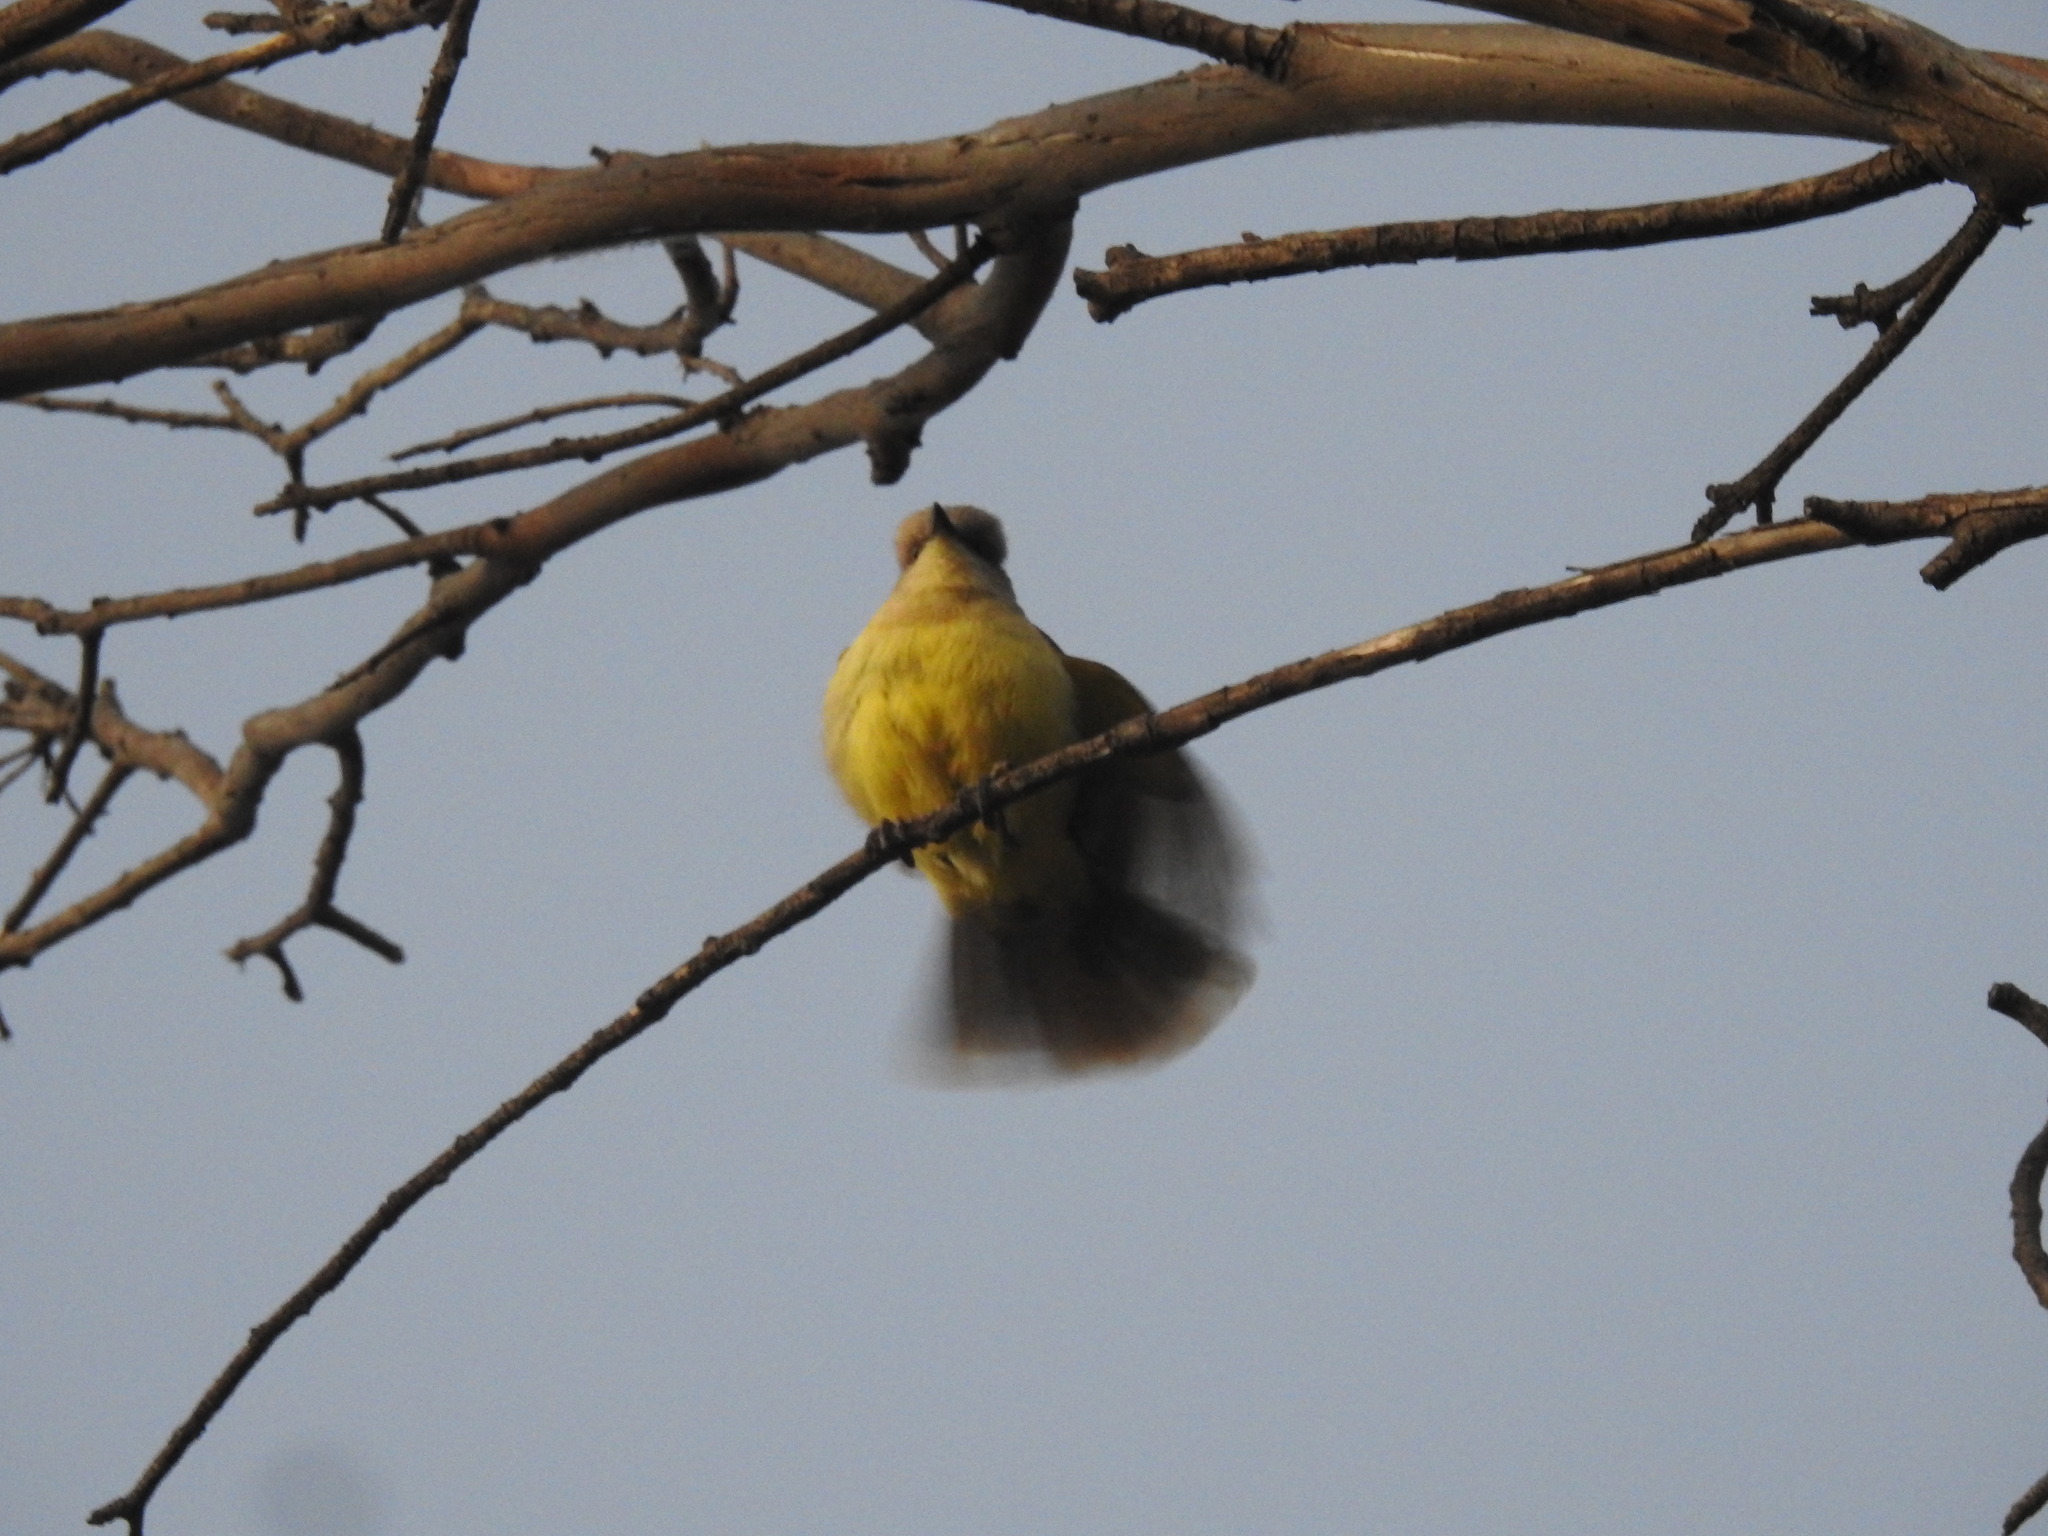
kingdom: Animalia
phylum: Chordata
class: Aves
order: Passeriformes
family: Tyrannidae
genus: Machetornis
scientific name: Machetornis rixosa
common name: Cattle tyrant
